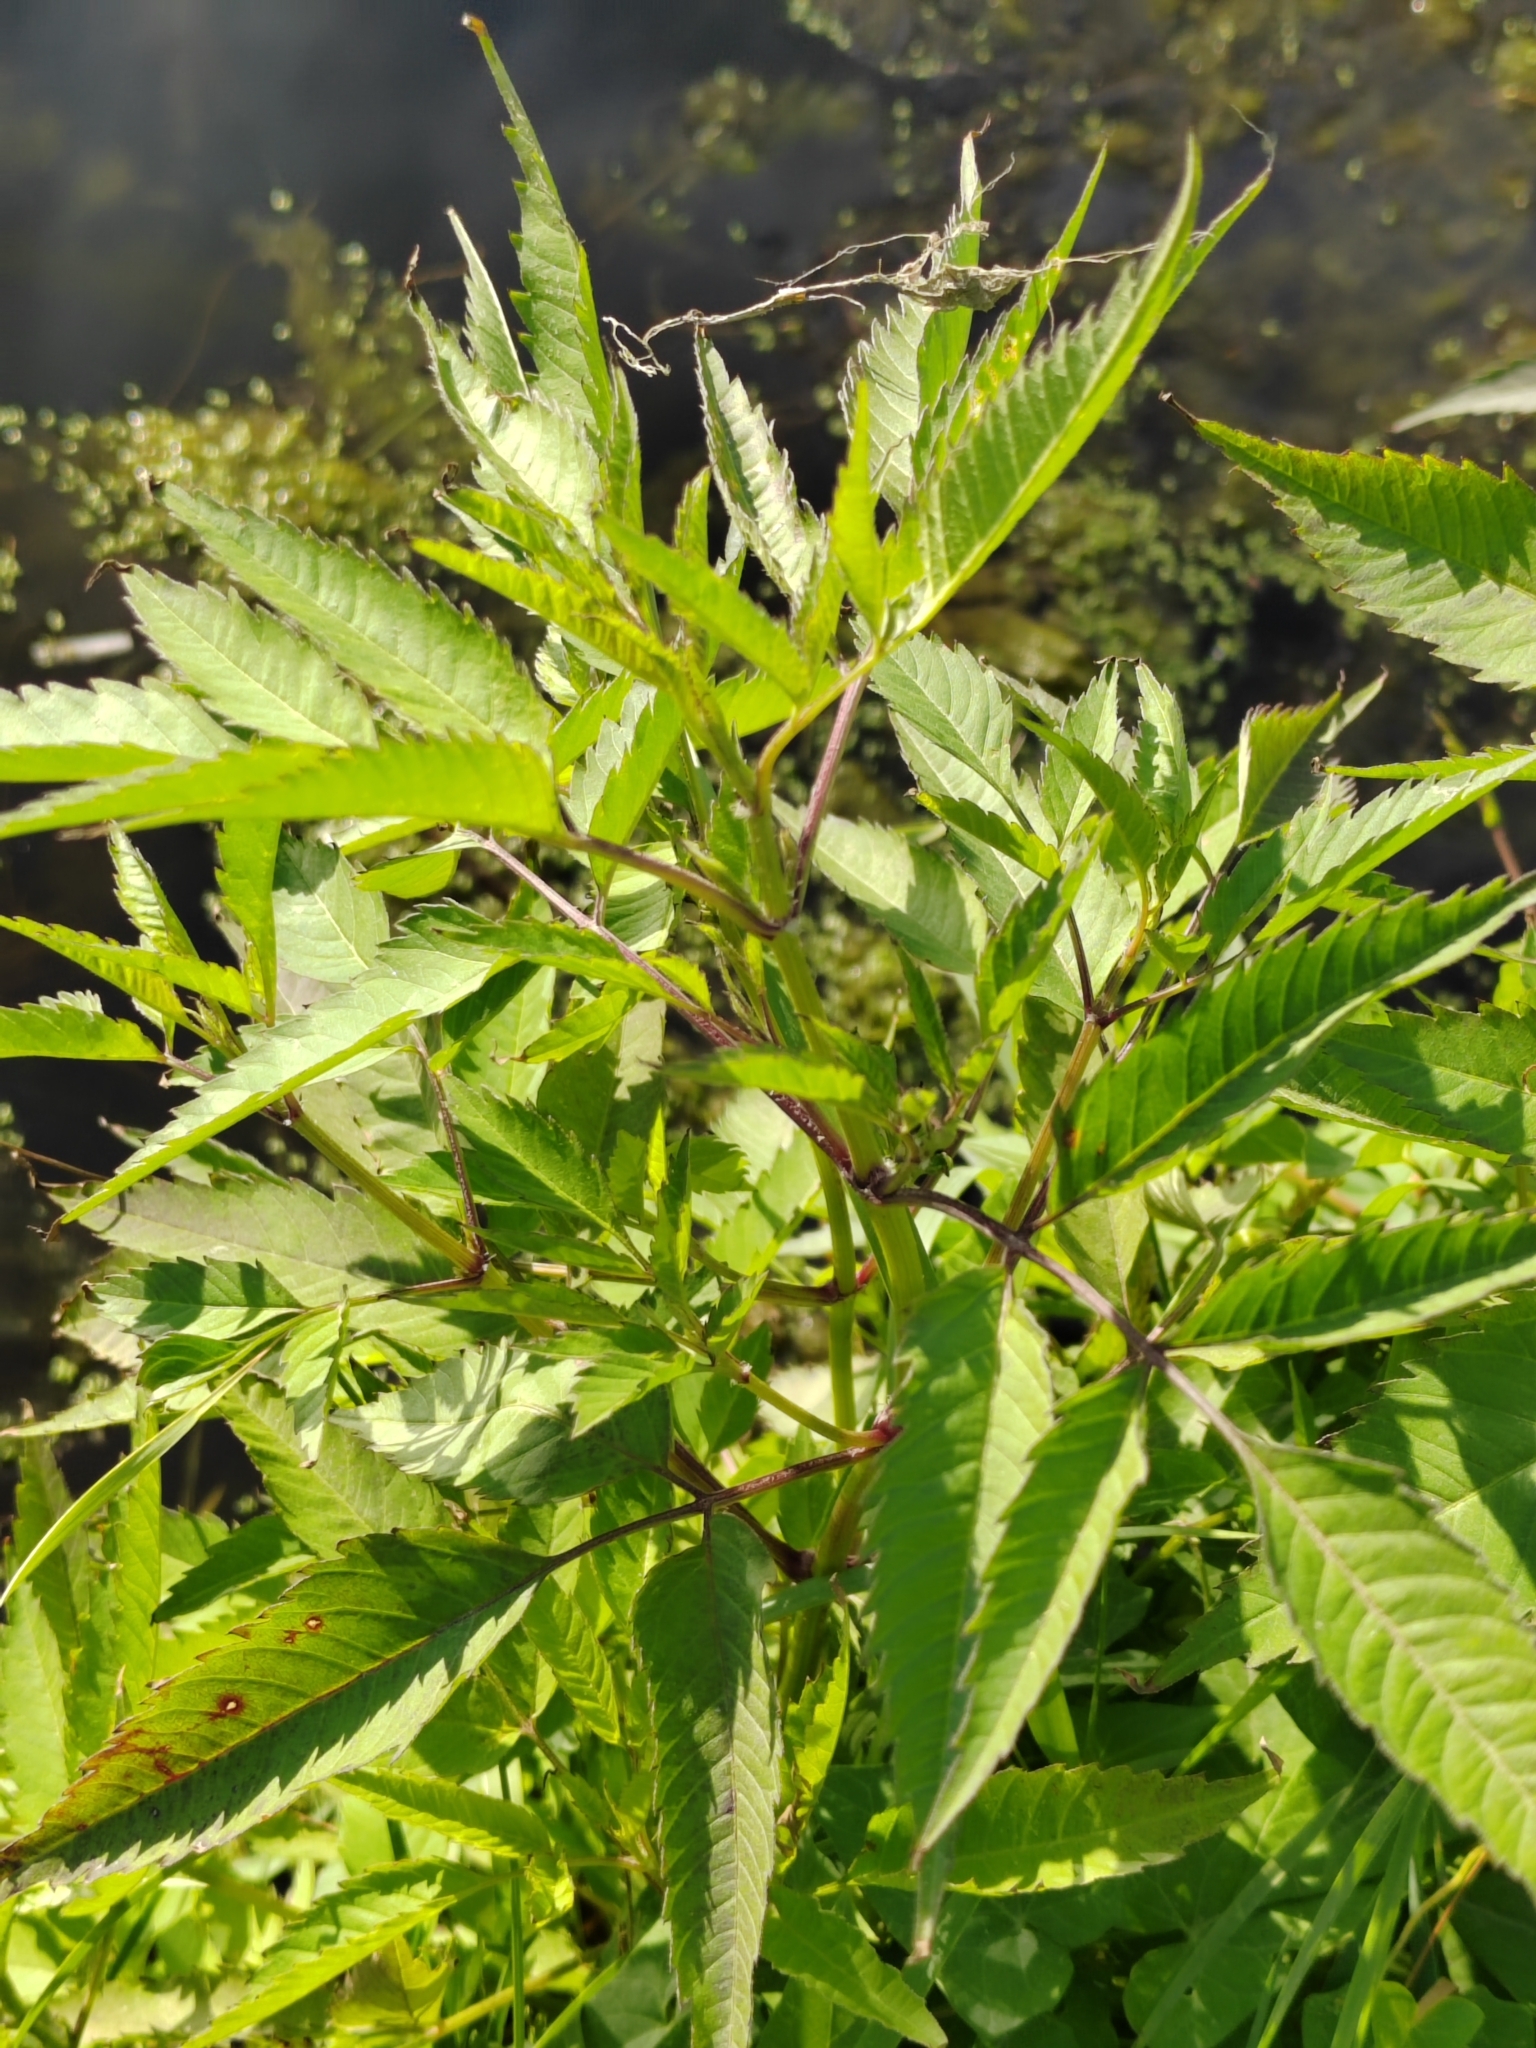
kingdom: Plantae
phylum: Tracheophyta
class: Magnoliopsida
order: Asterales
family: Asteraceae
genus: Bidens
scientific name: Bidens frondosa
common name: Beggarticks
